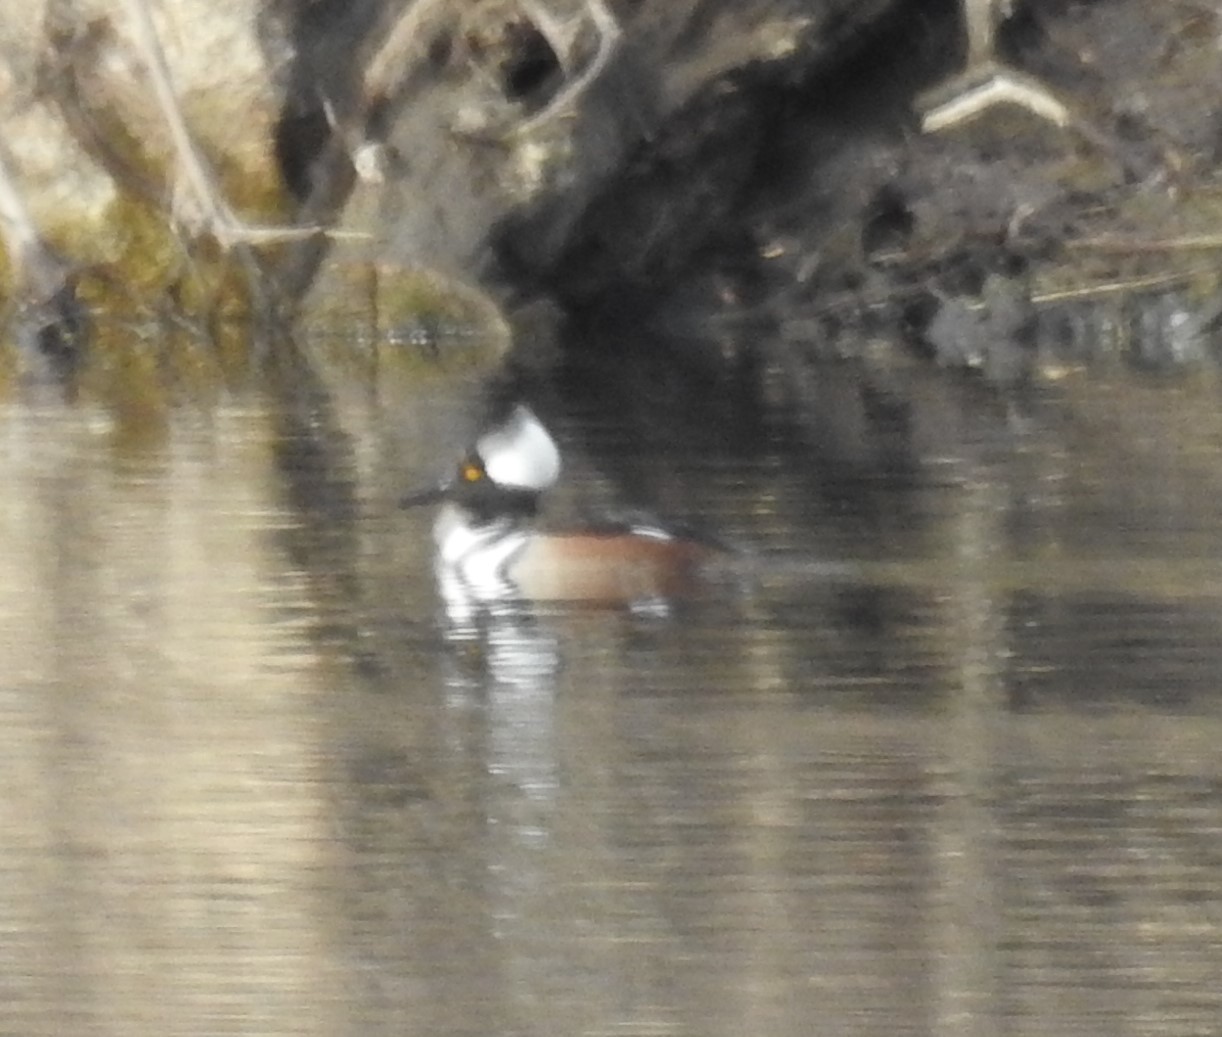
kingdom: Animalia
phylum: Chordata
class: Aves
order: Anseriformes
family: Anatidae
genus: Lophodytes
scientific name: Lophodytes cucullatus
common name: Hooded merganser
